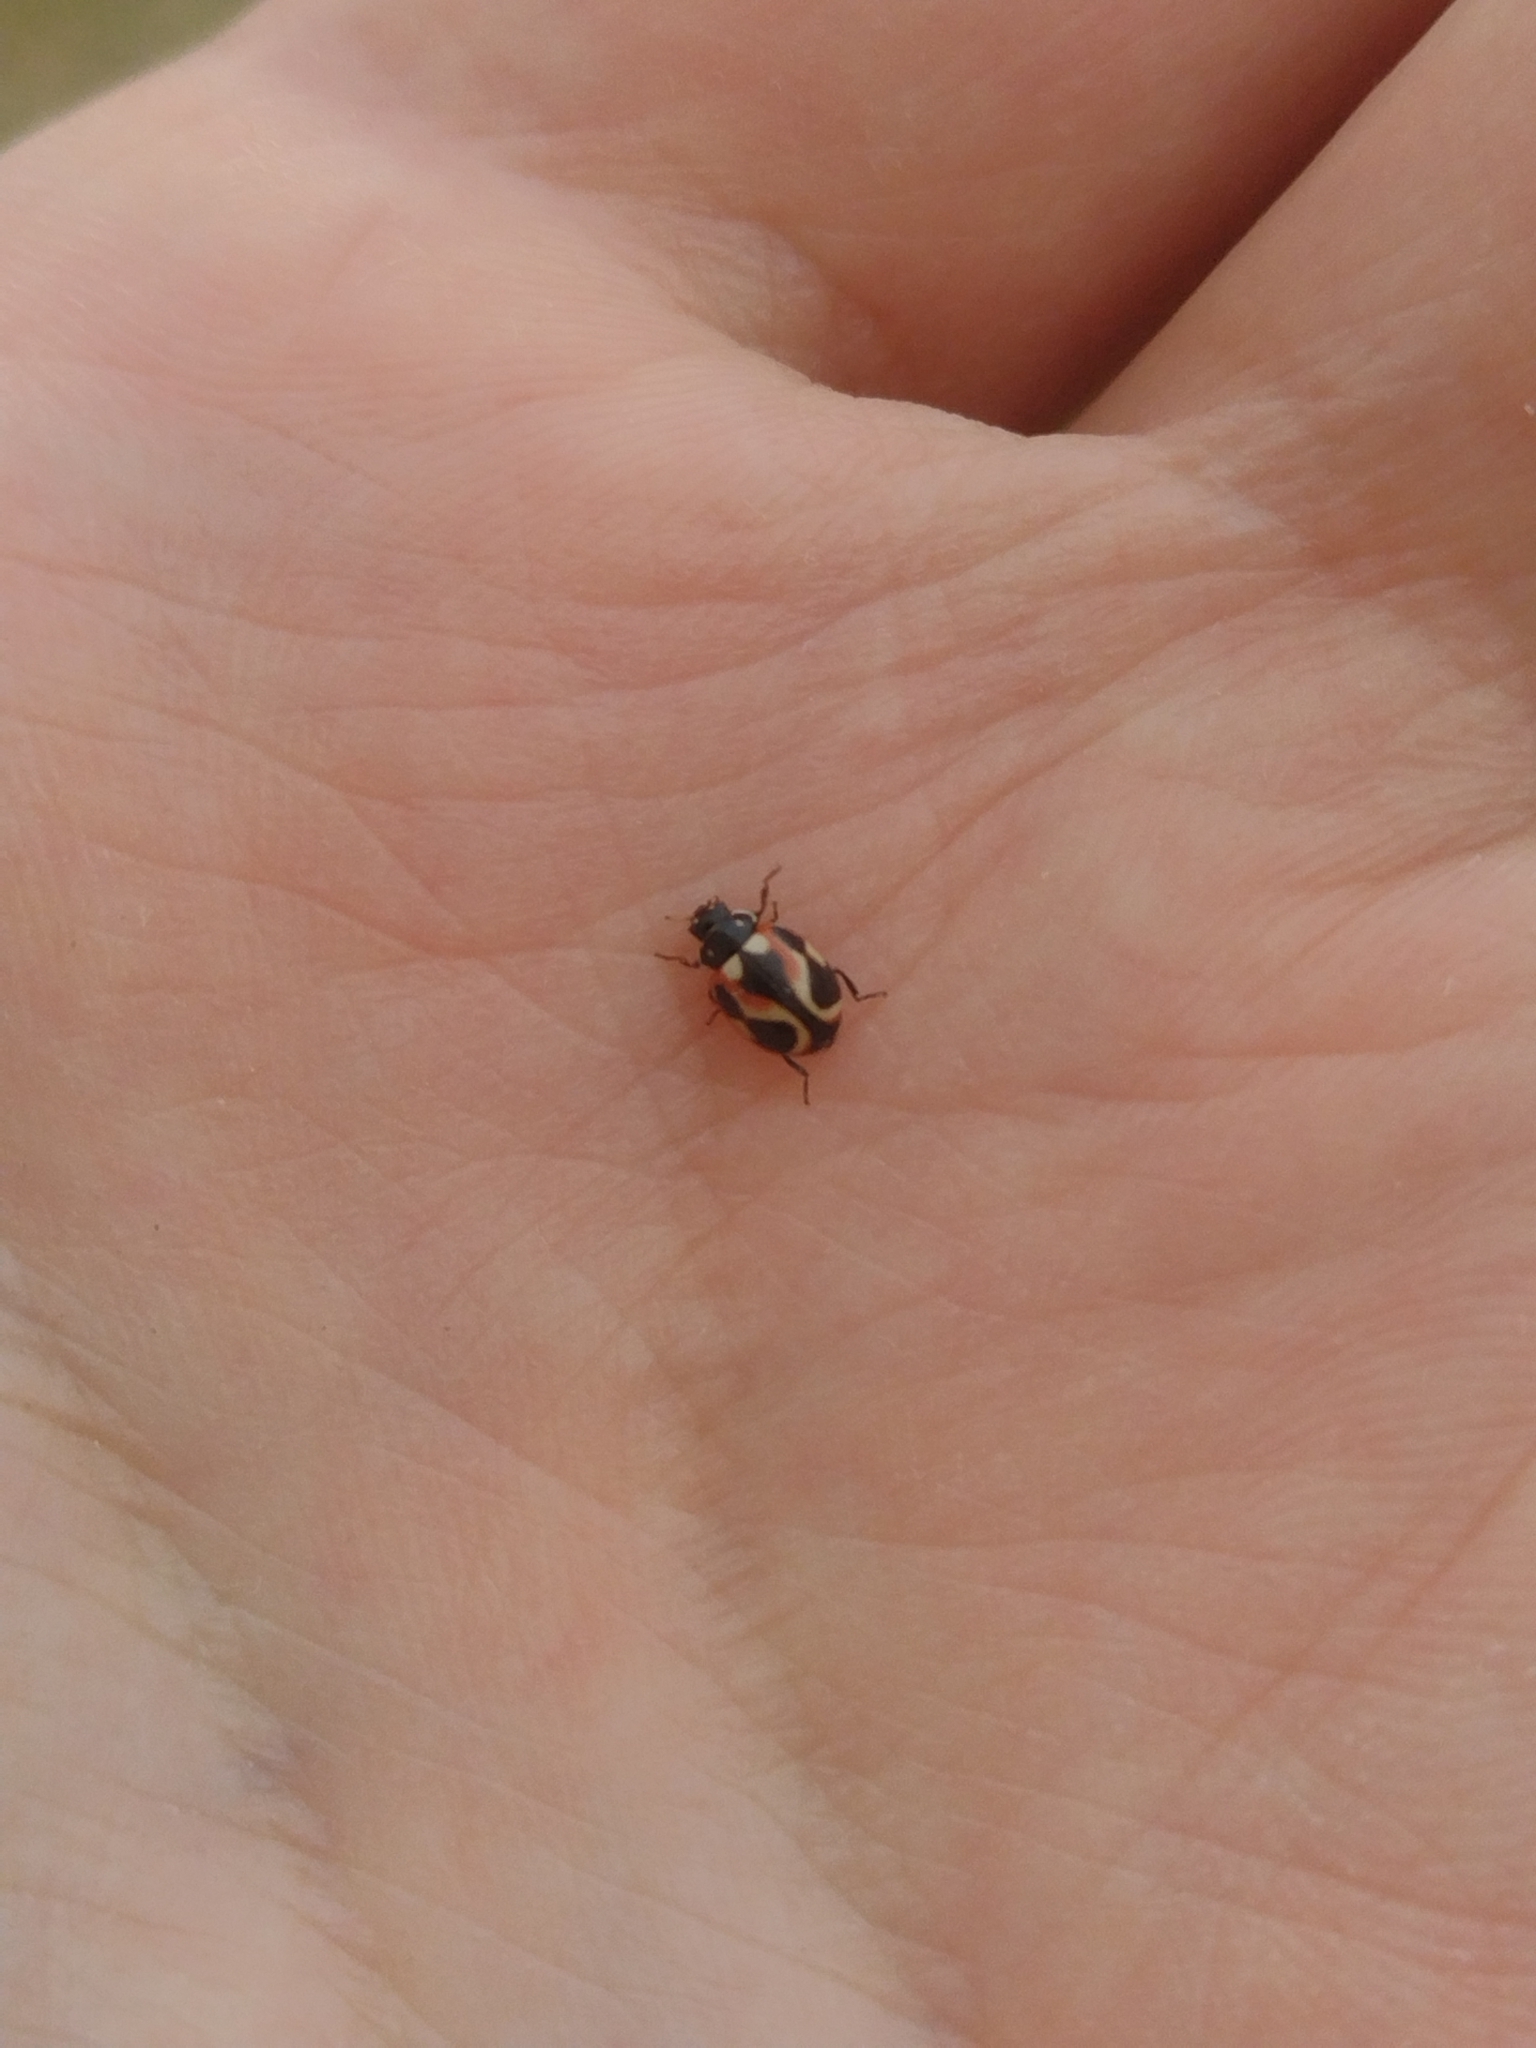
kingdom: Animalia
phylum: Arthropoda
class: Insecta
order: Coleoptera
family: Coccinellidae
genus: Cycloneda
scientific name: Cycloneda ancoralis
